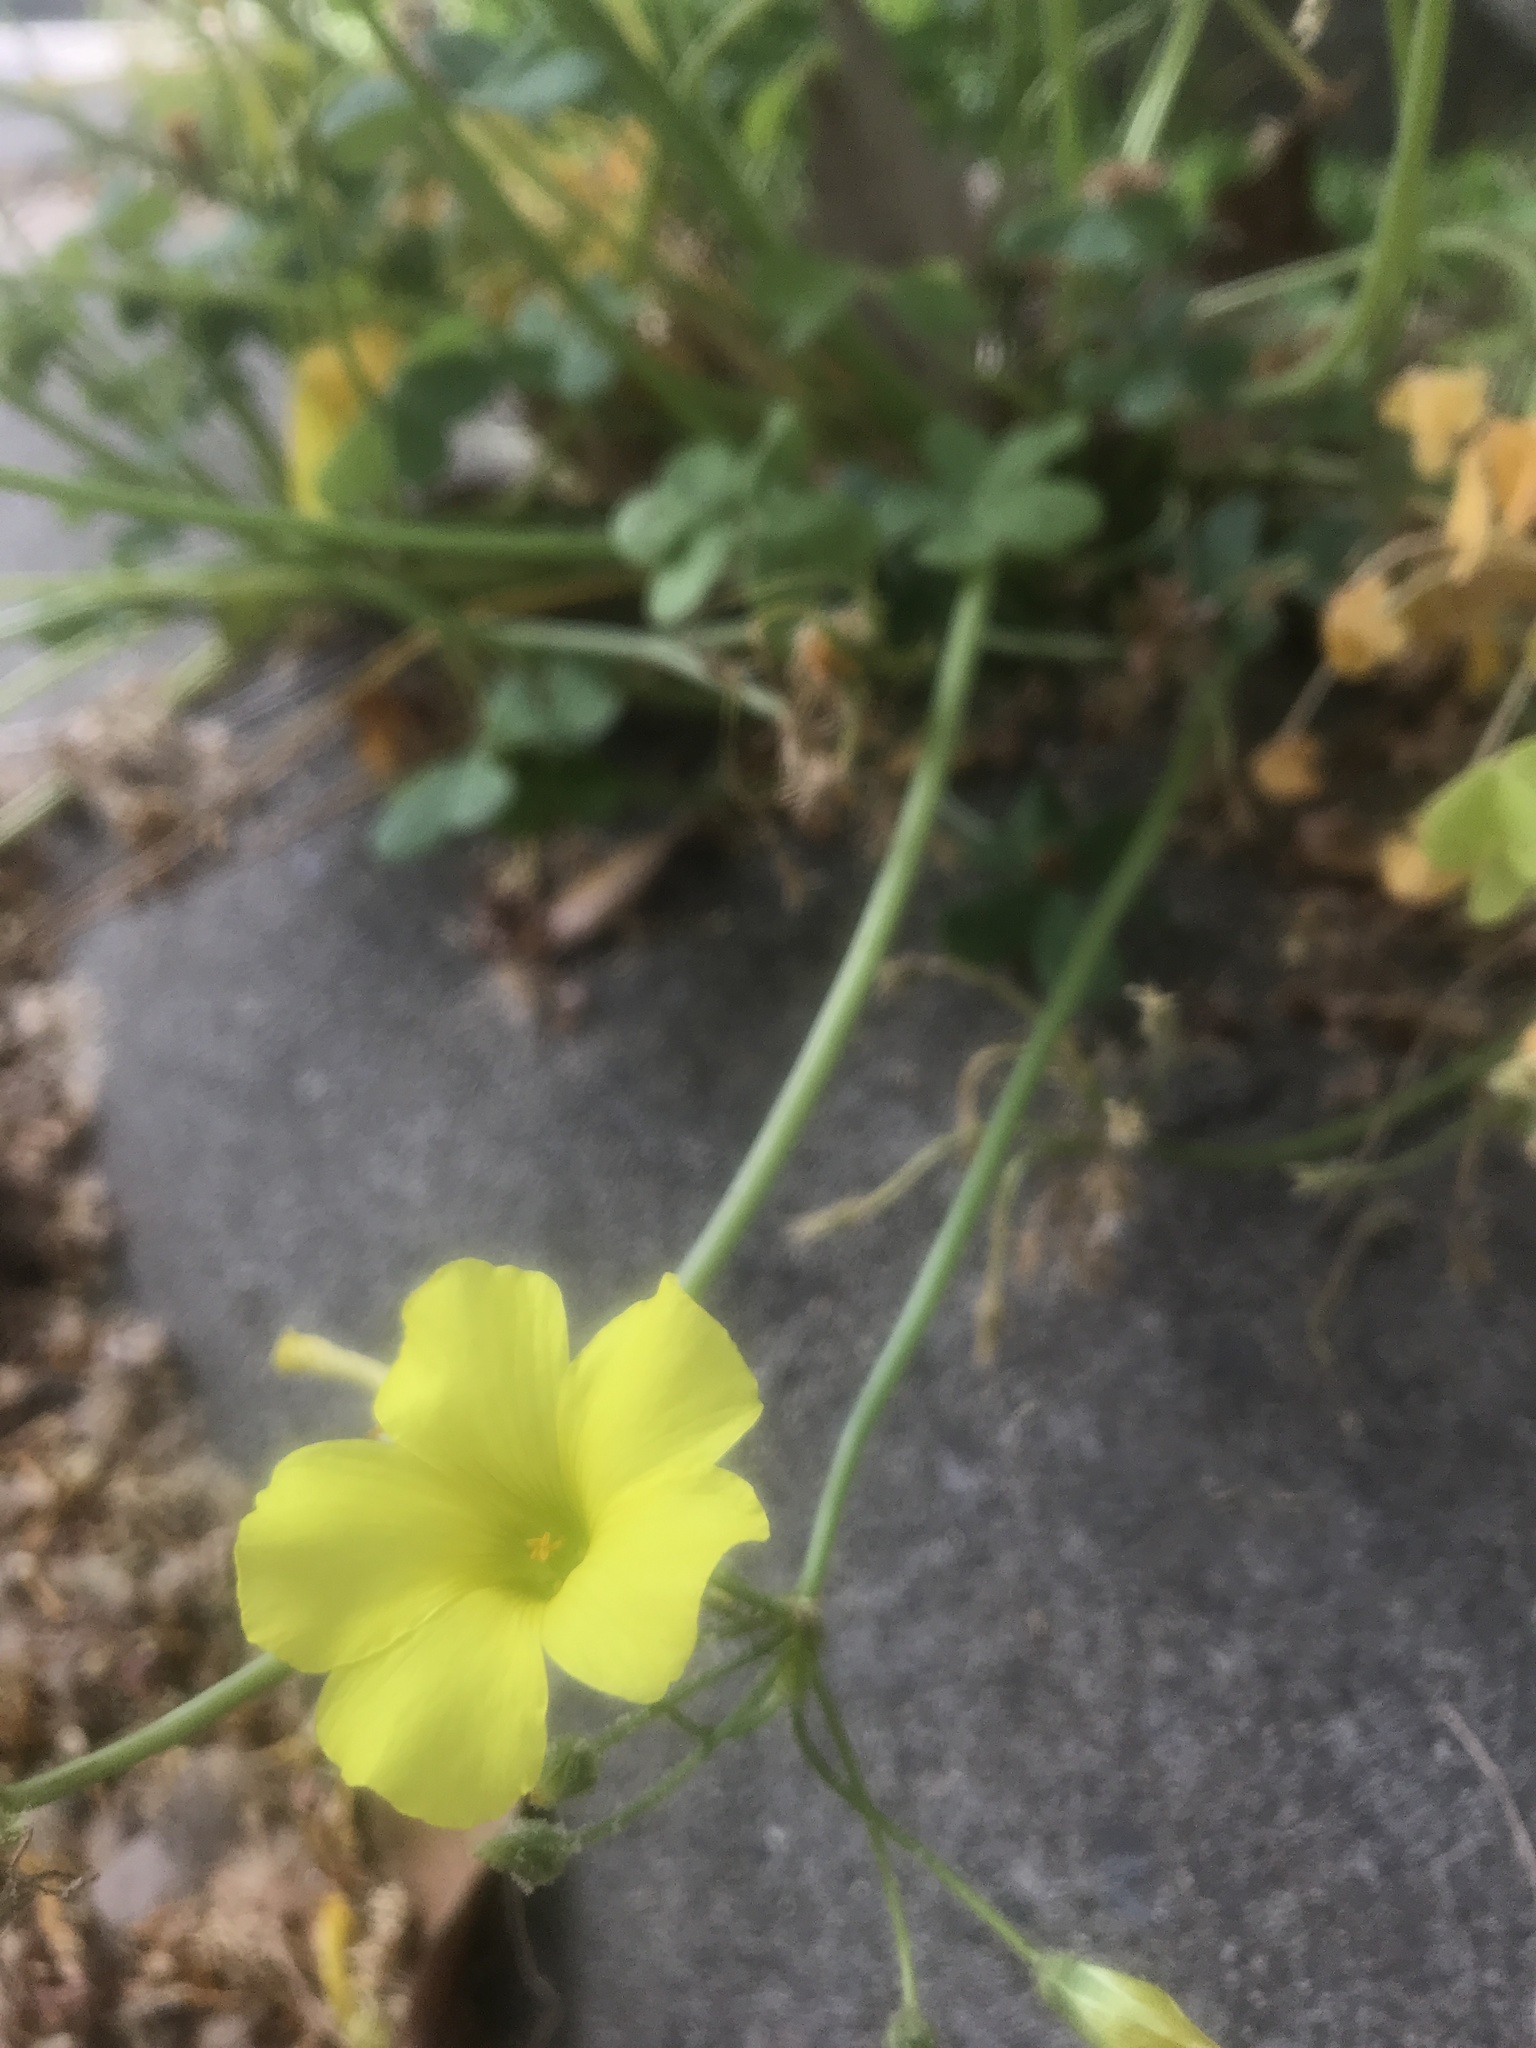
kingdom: Plantae
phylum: Tracheophyta
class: Magnoliopsida
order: Oxalidales
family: Oxalidaceae
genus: Oxalis
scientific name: Oxalis pes-caprae
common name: Bermuda-buttercup
